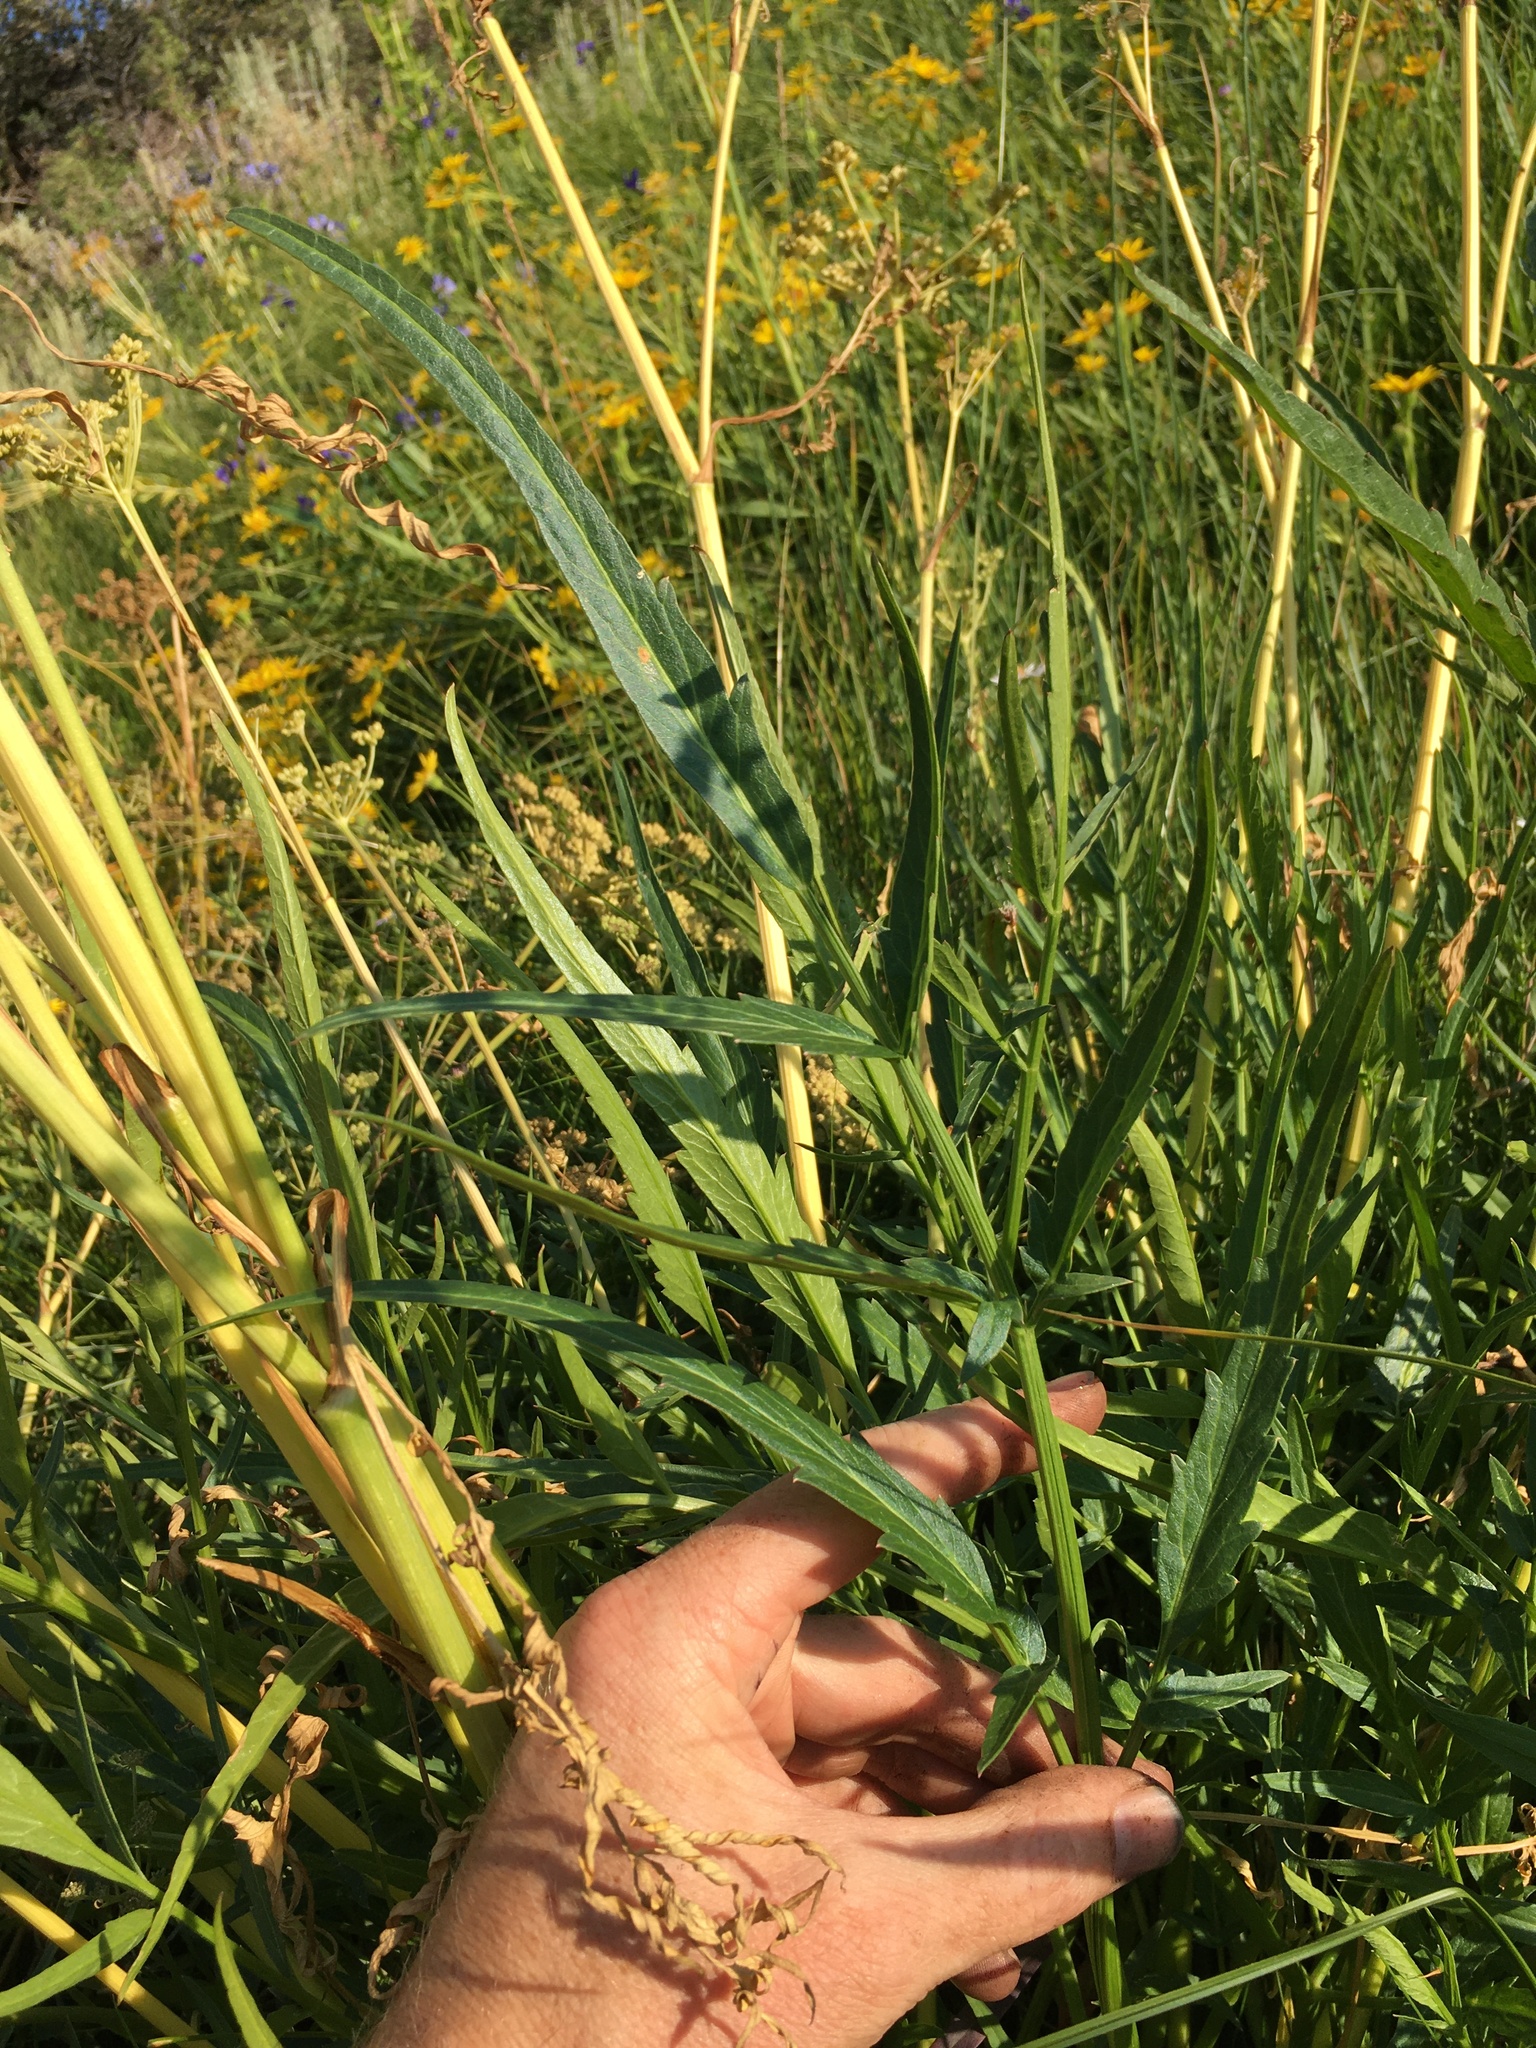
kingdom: Plantae
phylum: Tracheophyta
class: Magnoliopsida
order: Apiales
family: Apiaceae
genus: Angelica
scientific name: Angelica kingii
